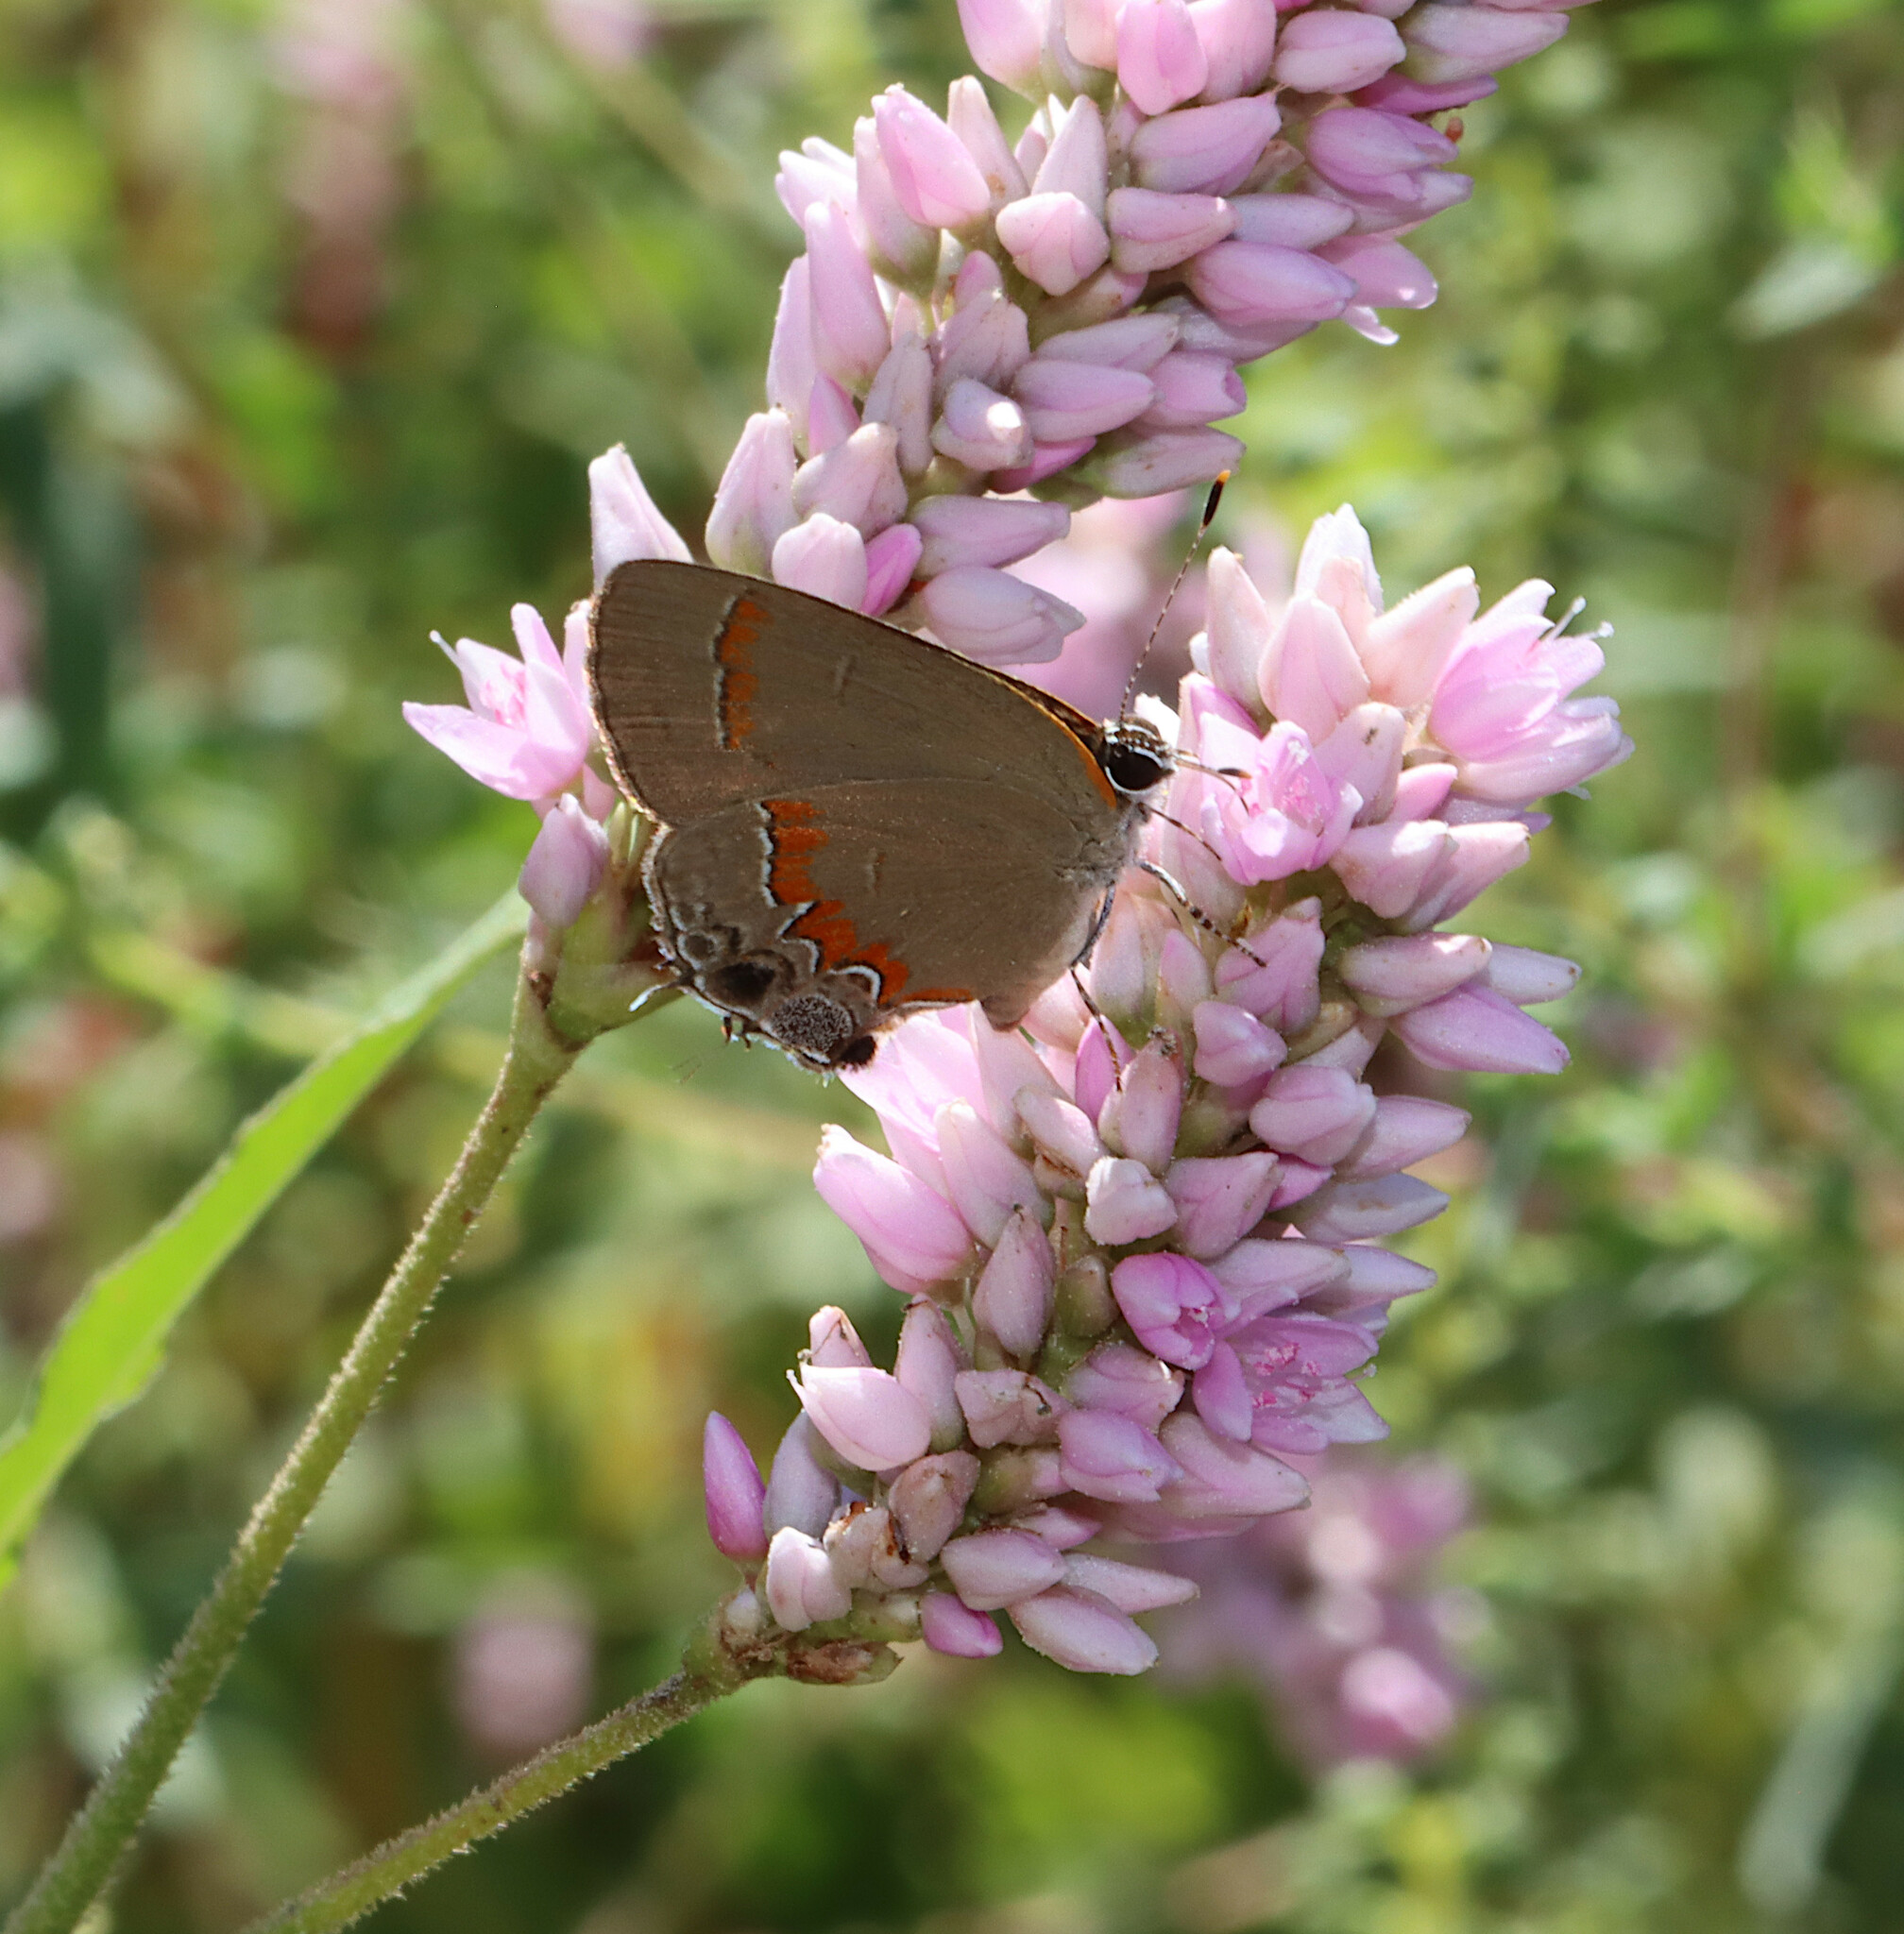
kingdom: Animalia
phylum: Arthropoda
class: Insecta
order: Lepidoptera
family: Lycaenidae
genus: Calycopis
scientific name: Calycopis cecrops
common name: Red-banded hairstreak
